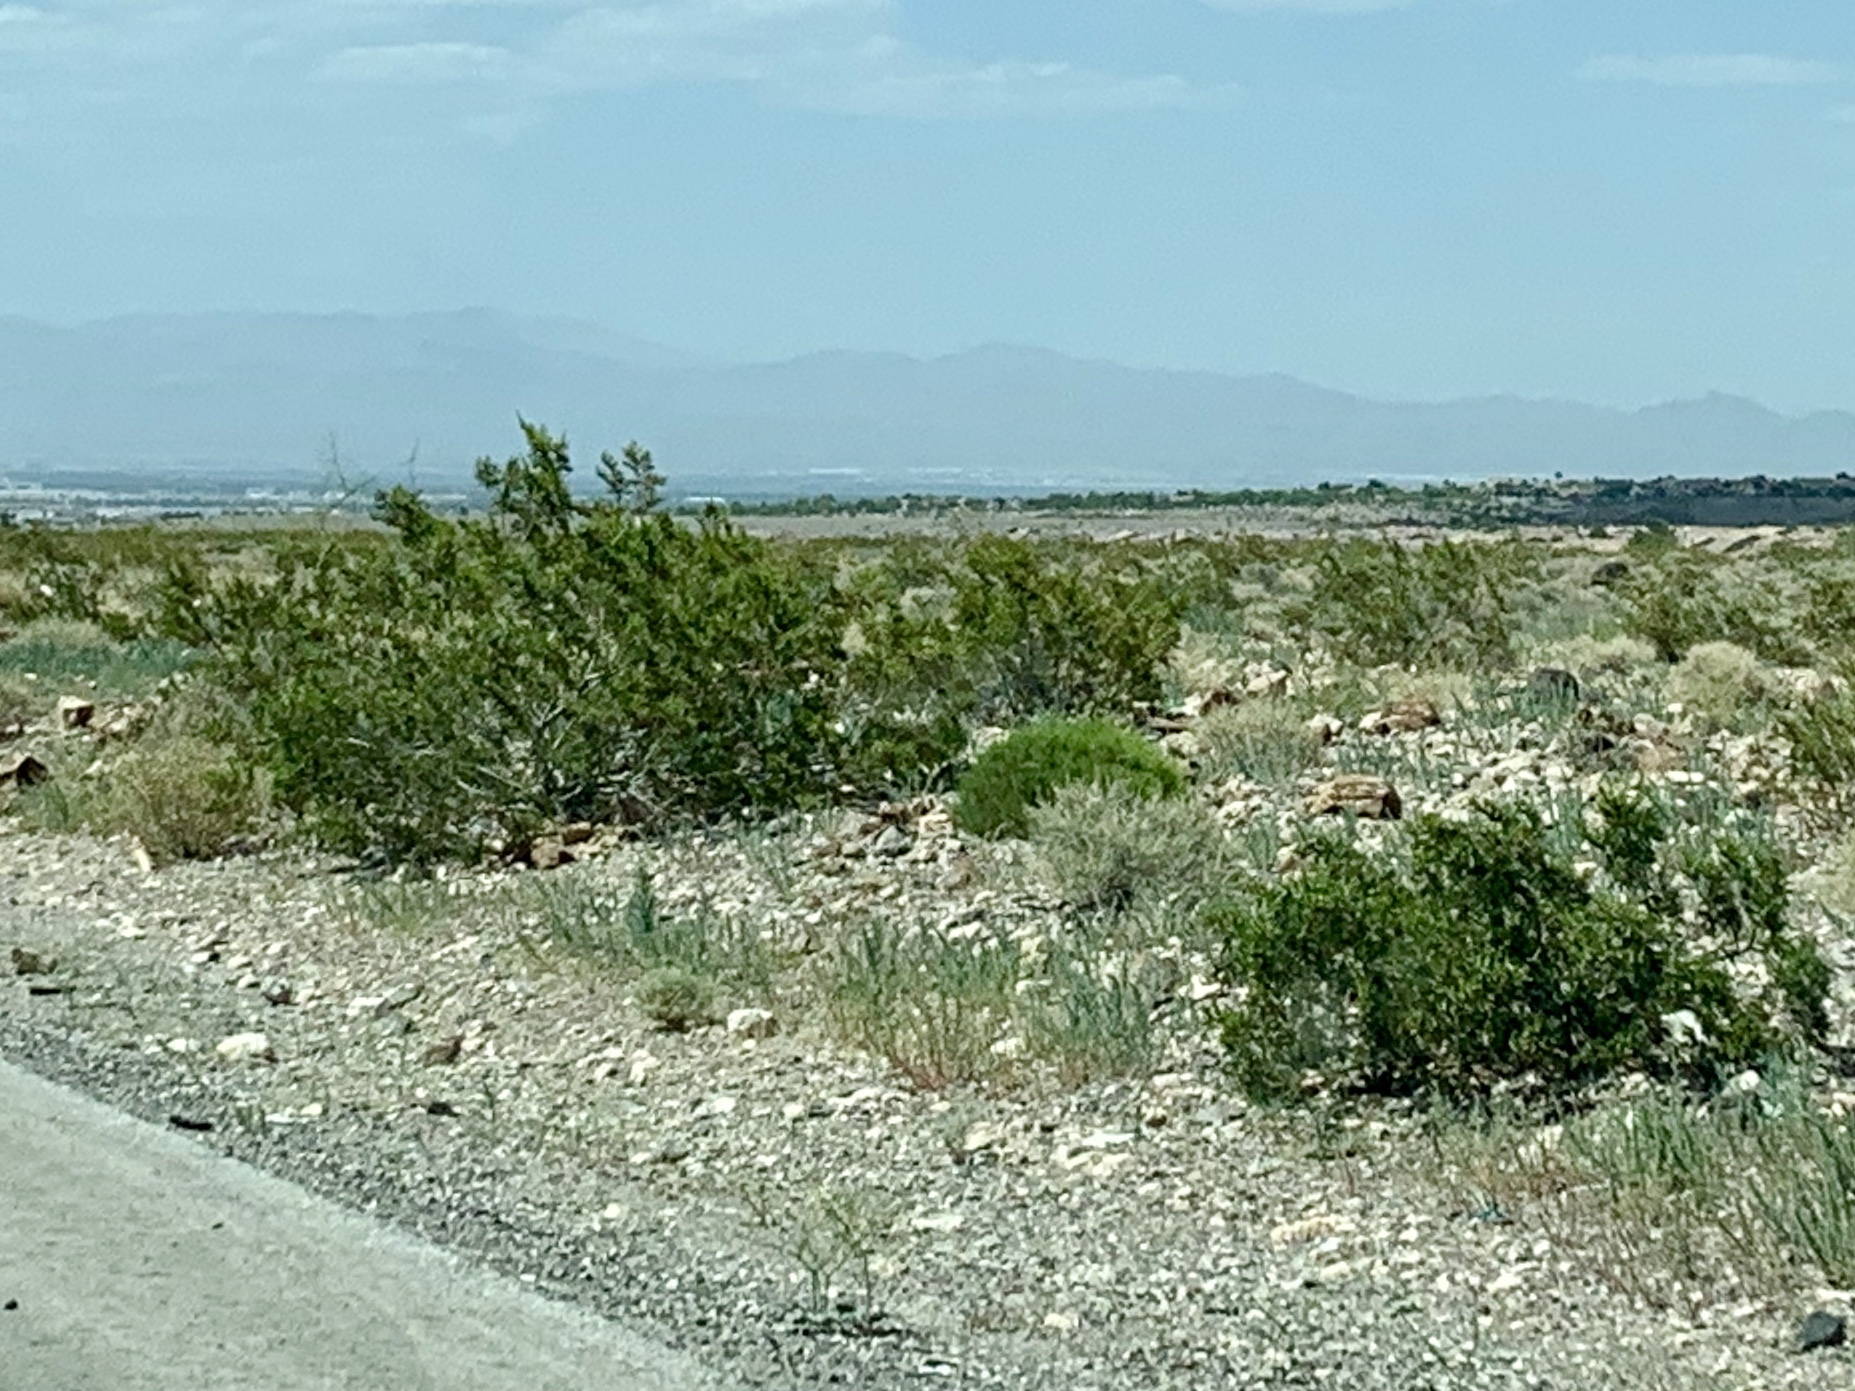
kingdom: Plantae
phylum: Tracheophyta
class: Magnoliopsida
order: Zygophyllales
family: Zygophyllaceae
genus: Larrea
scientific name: Larrea tridentata
